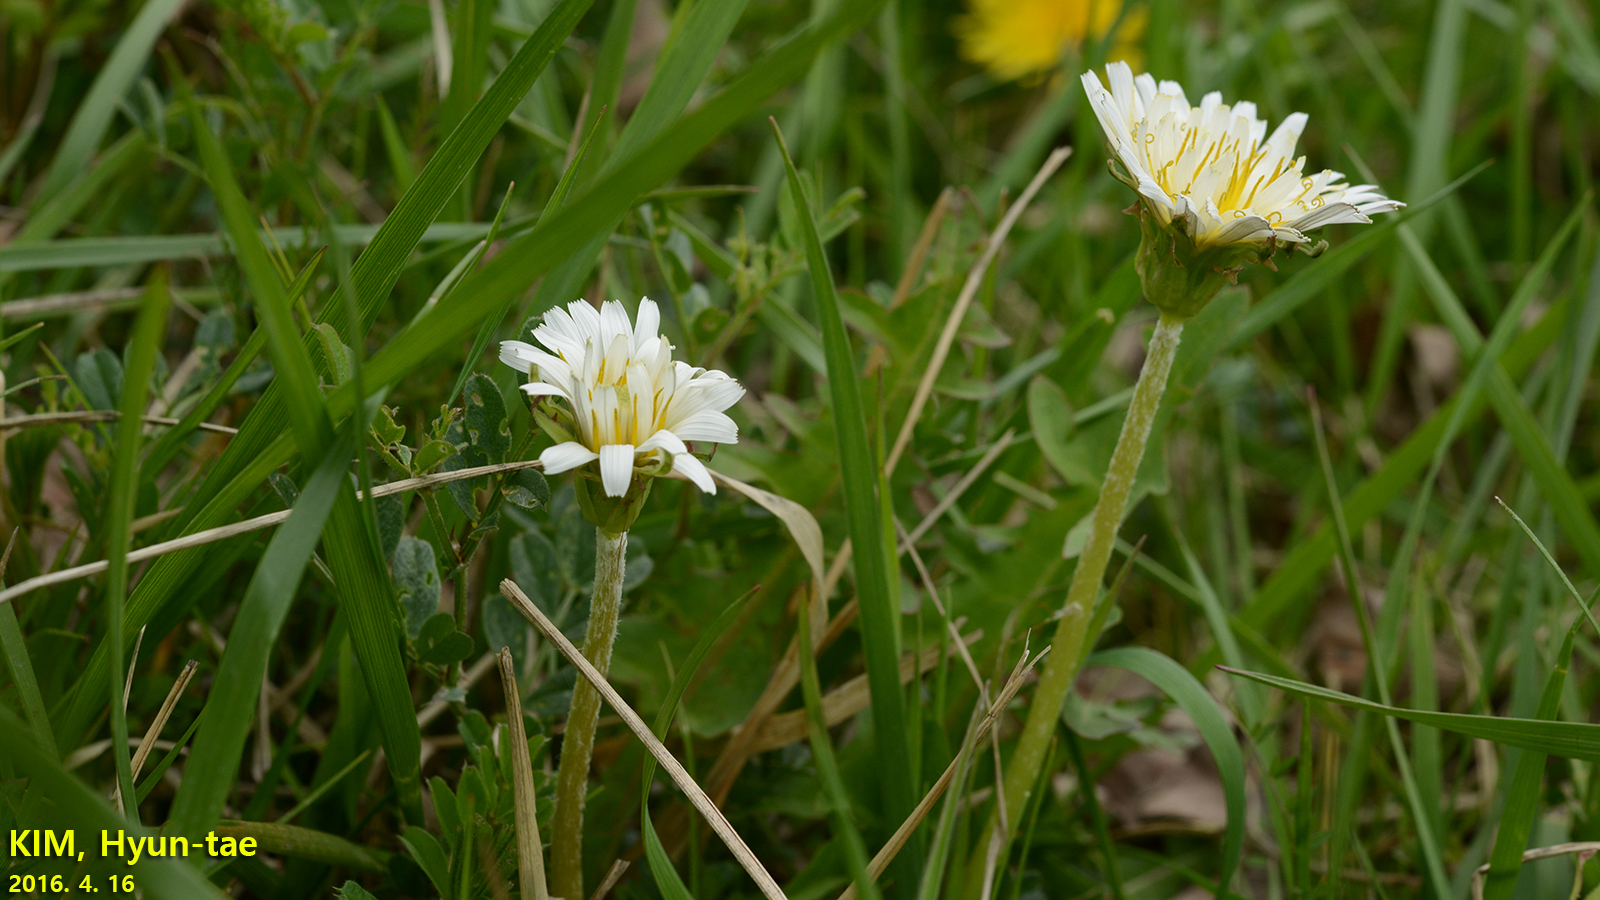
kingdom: Plantae
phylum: Tracheophyta
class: Magnoliopsida
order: Asterales
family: Asteraceae
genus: Taraxacum
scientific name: Taraxacum coreanum
